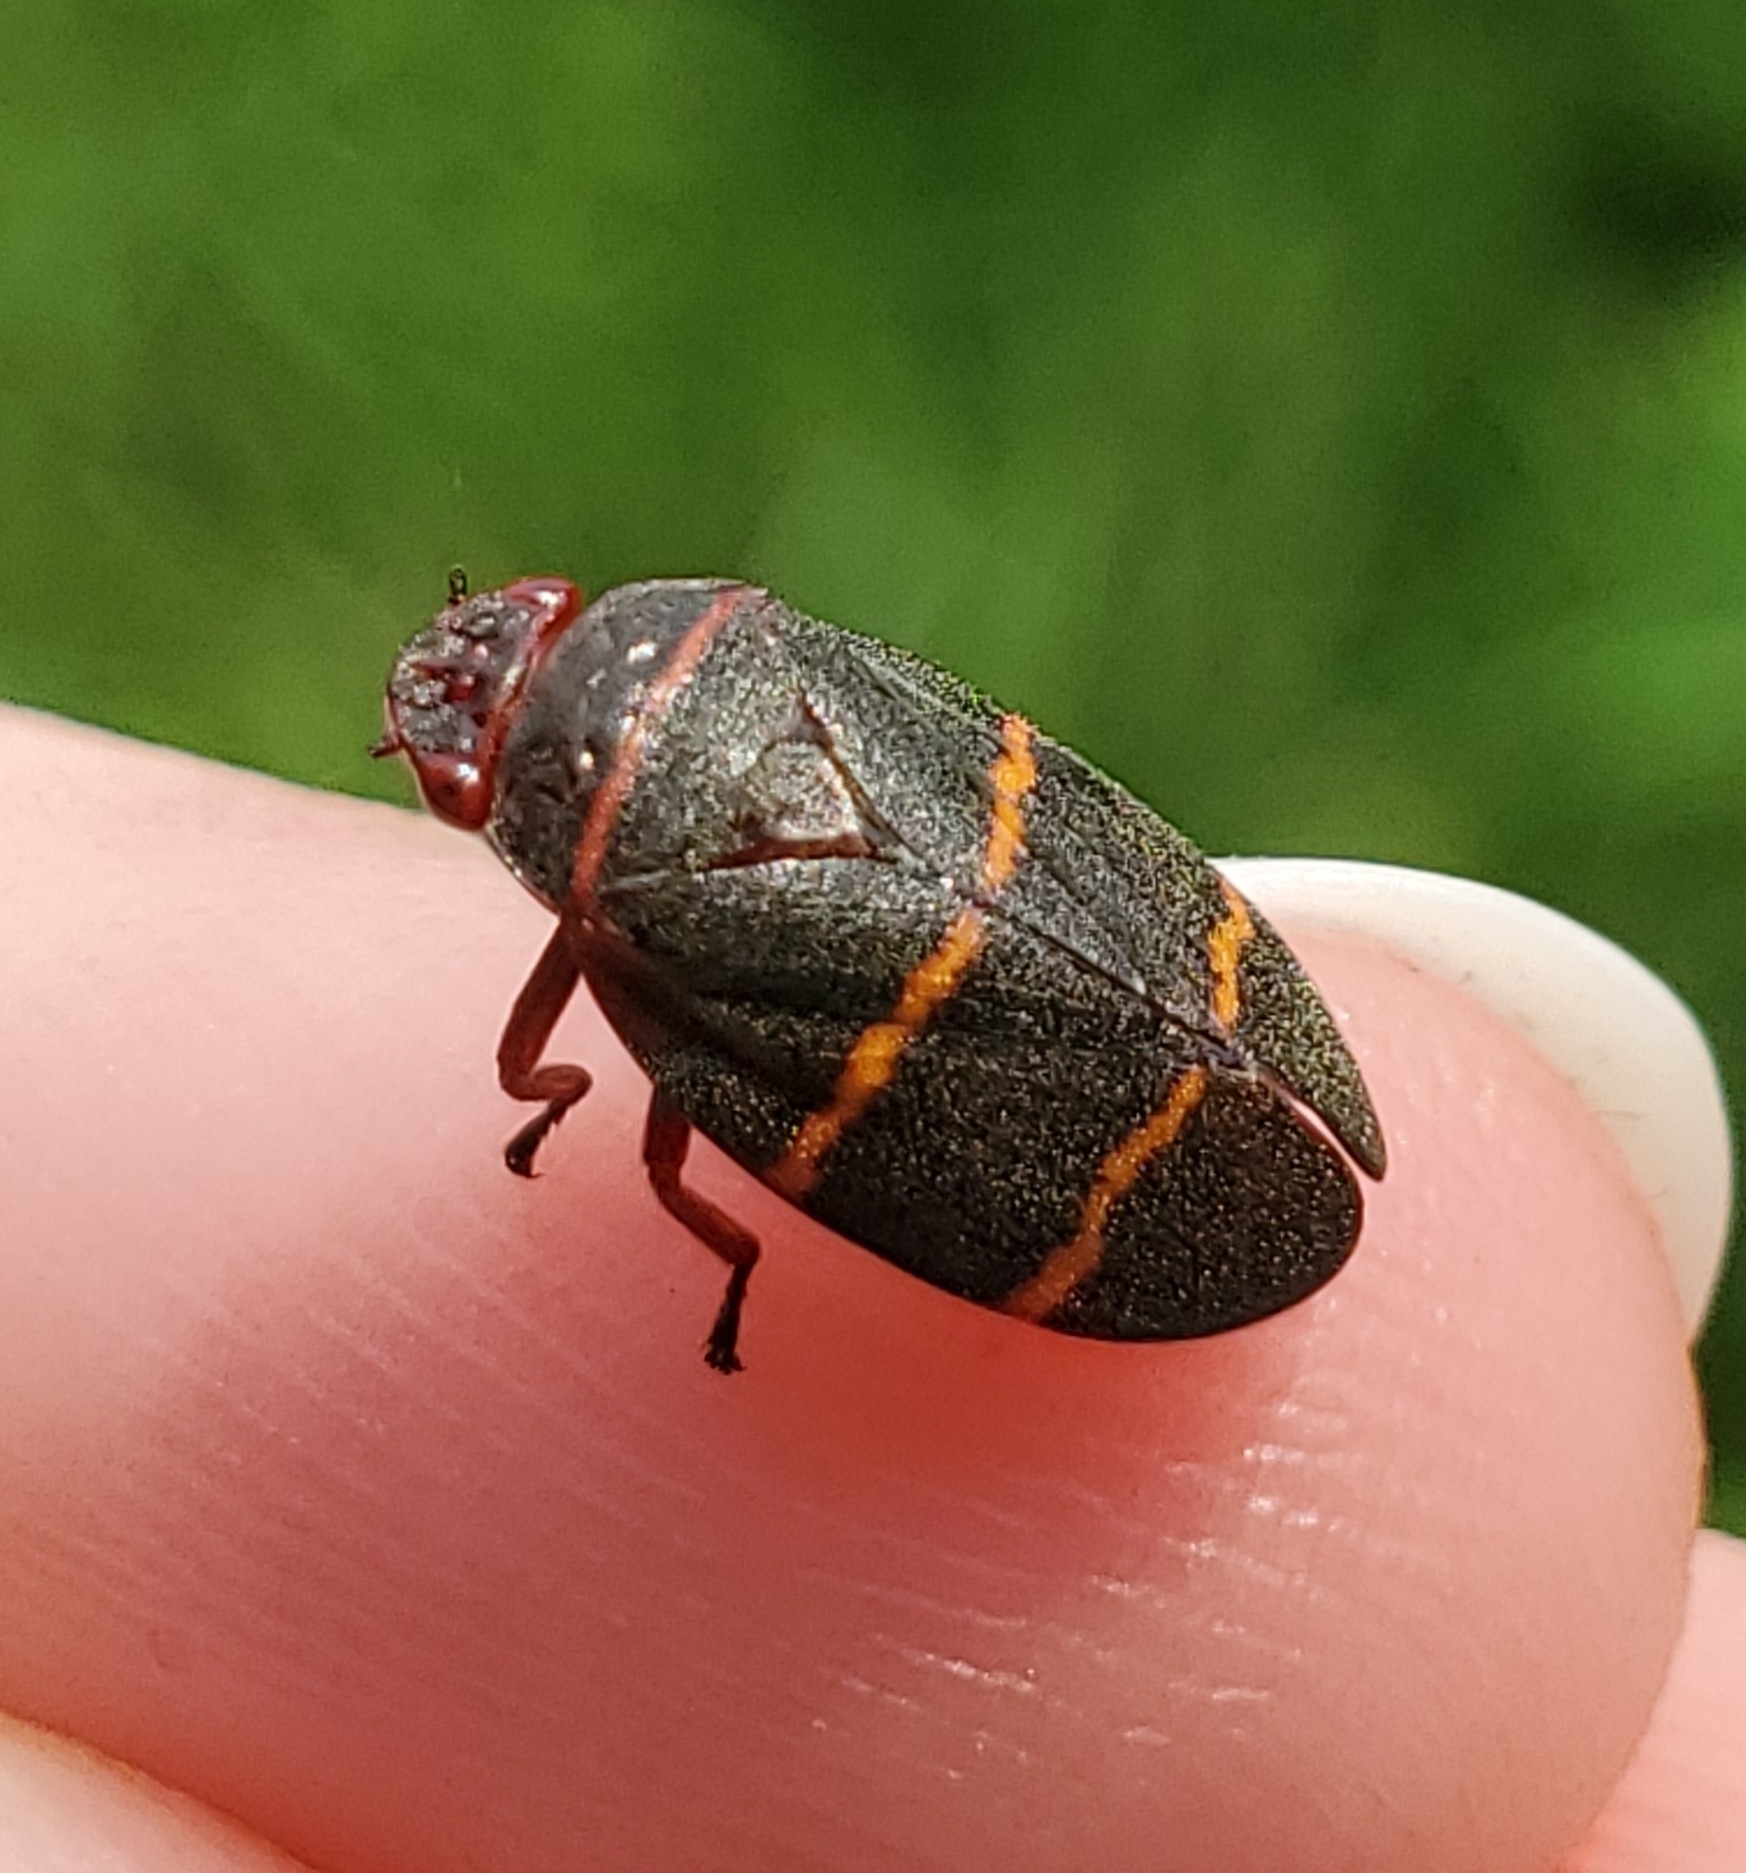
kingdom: Animalia
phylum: Arthropoda
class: Insecta
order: Hemiptera
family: Cercopidae
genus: Prosapia
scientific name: Prosapia bicincta
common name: Twolined spittlebug
